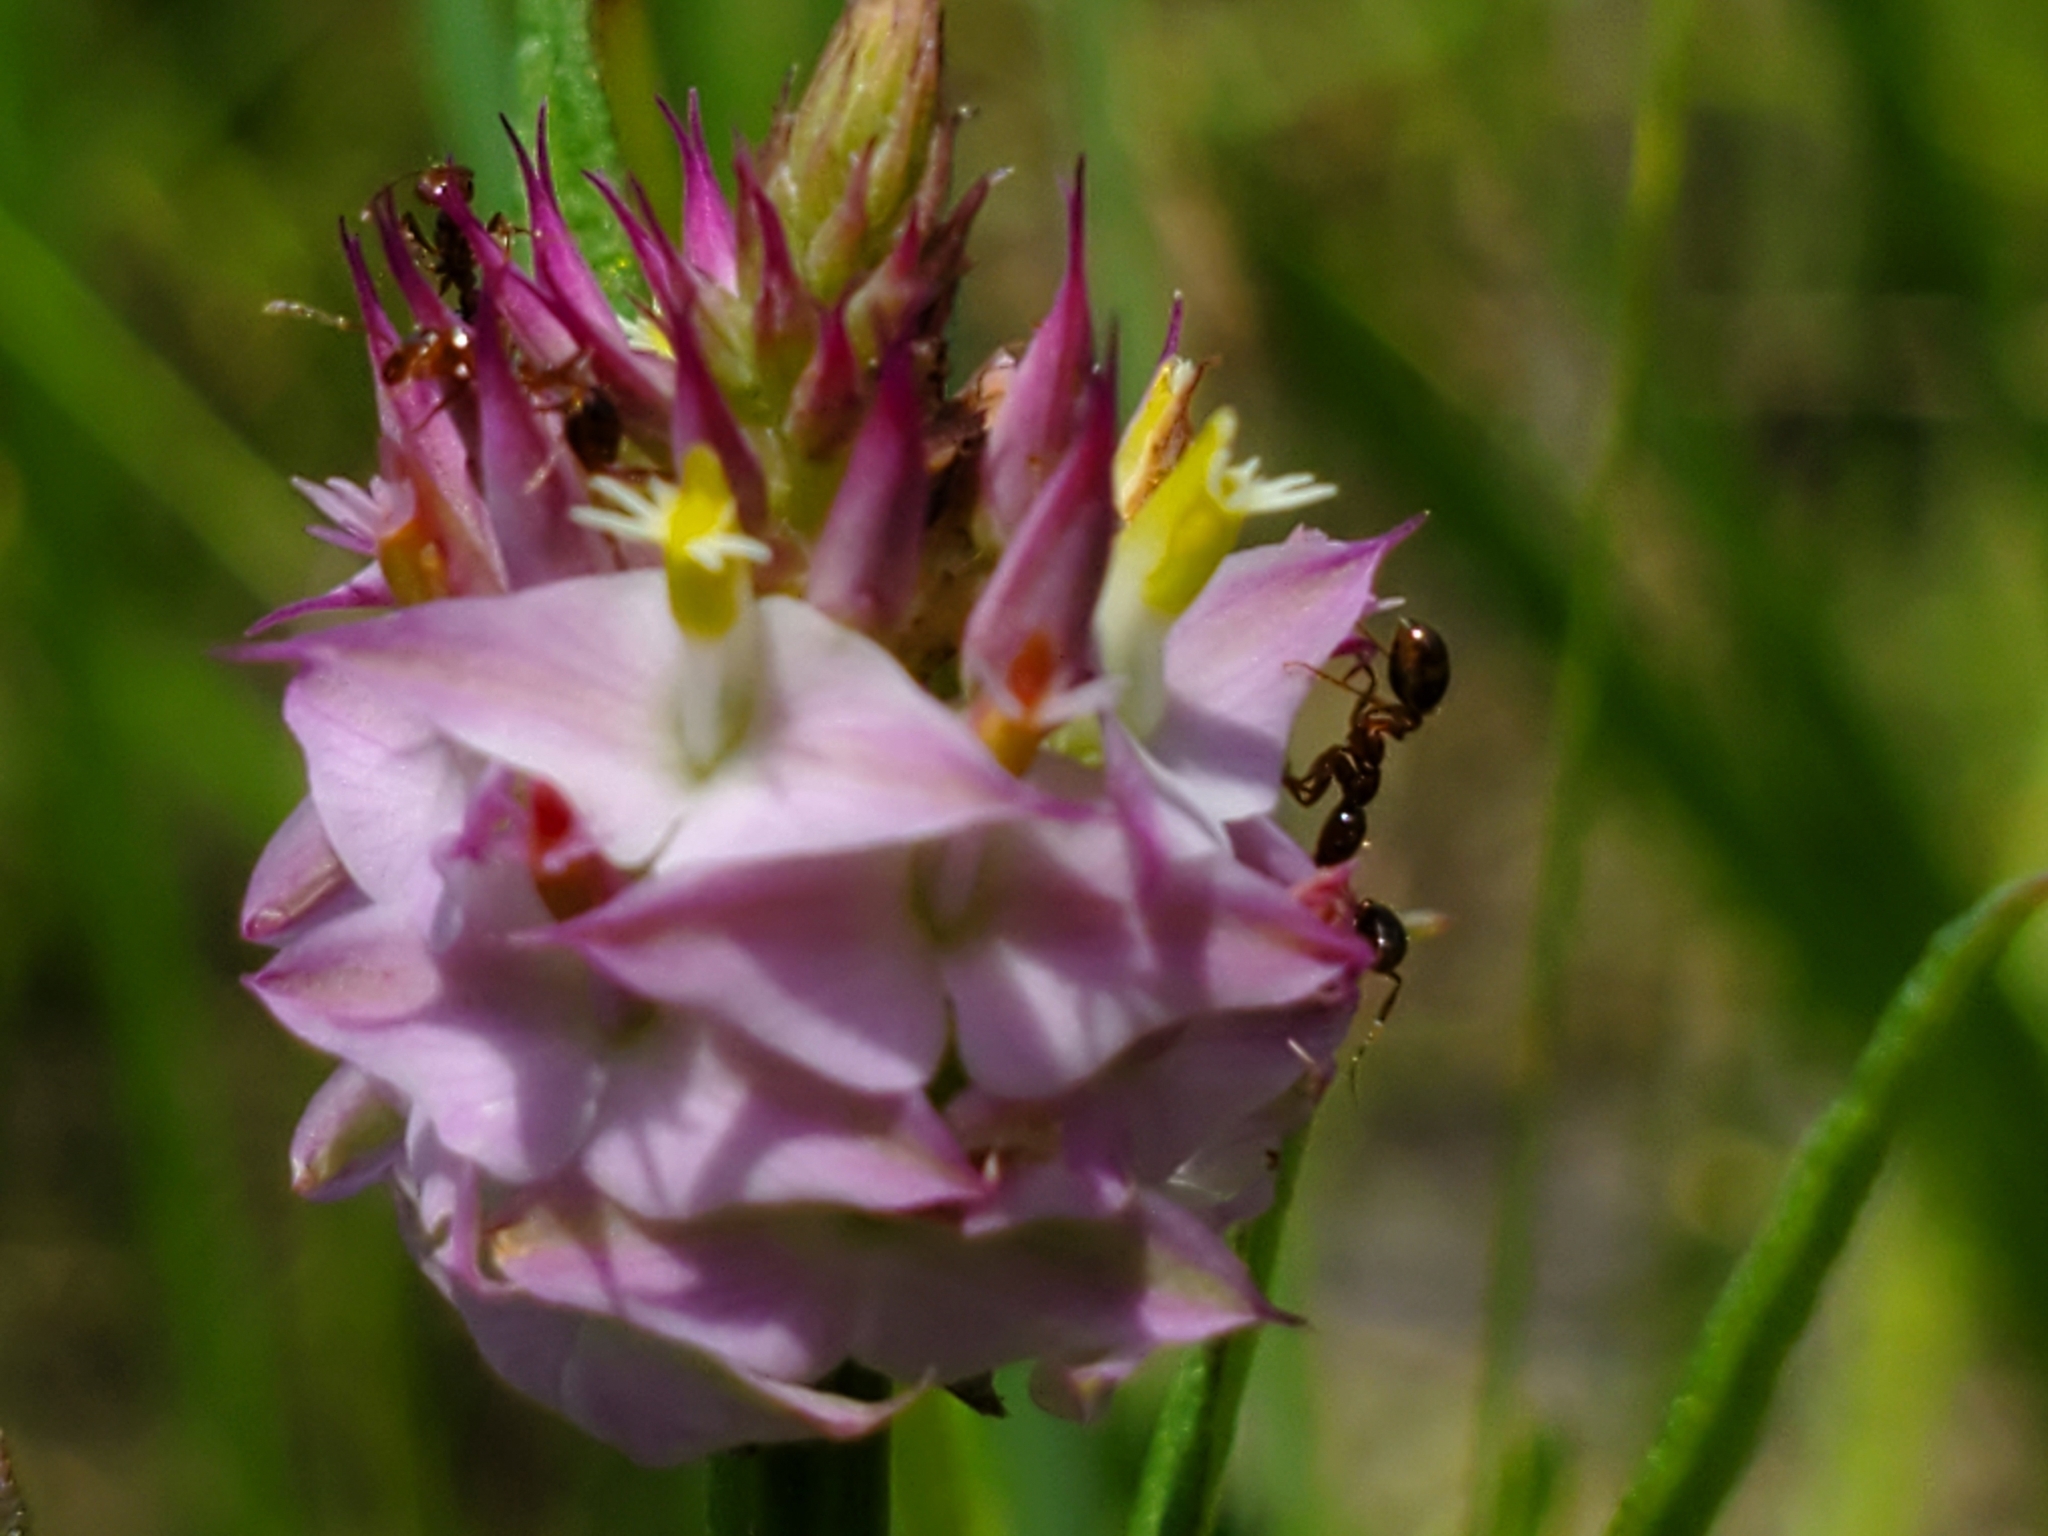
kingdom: Plantae
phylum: Tracheophyta
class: Magnoliopsida
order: Fabales
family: Polygalaceae
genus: Polygala
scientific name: Polygala cruciata
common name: Drumheads
